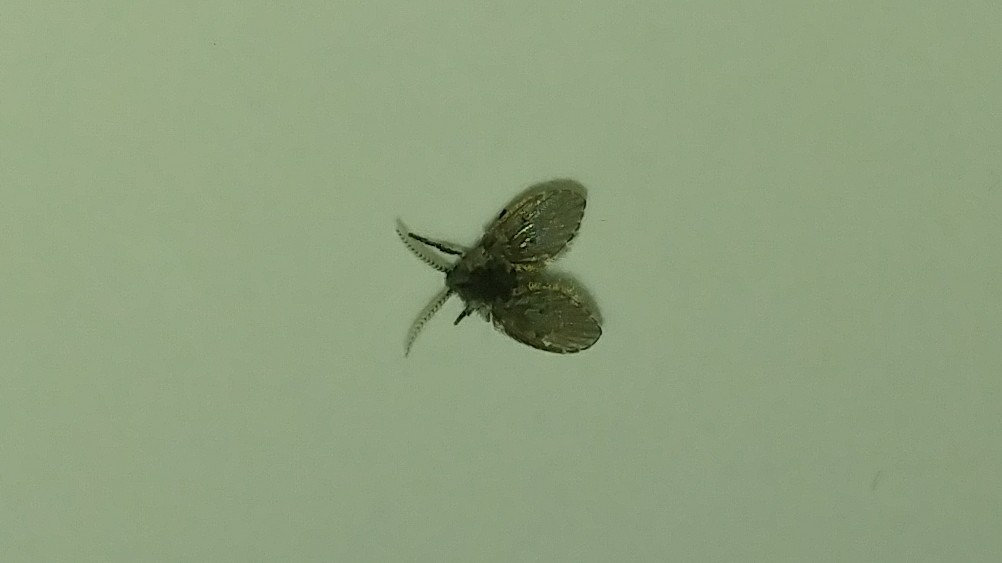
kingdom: Animalia
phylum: Arthropoda
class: Insecta
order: Diptera
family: Psychodidae
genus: Clogmia
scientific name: Clogmia albipunctatus
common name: White-spotted moth fly
